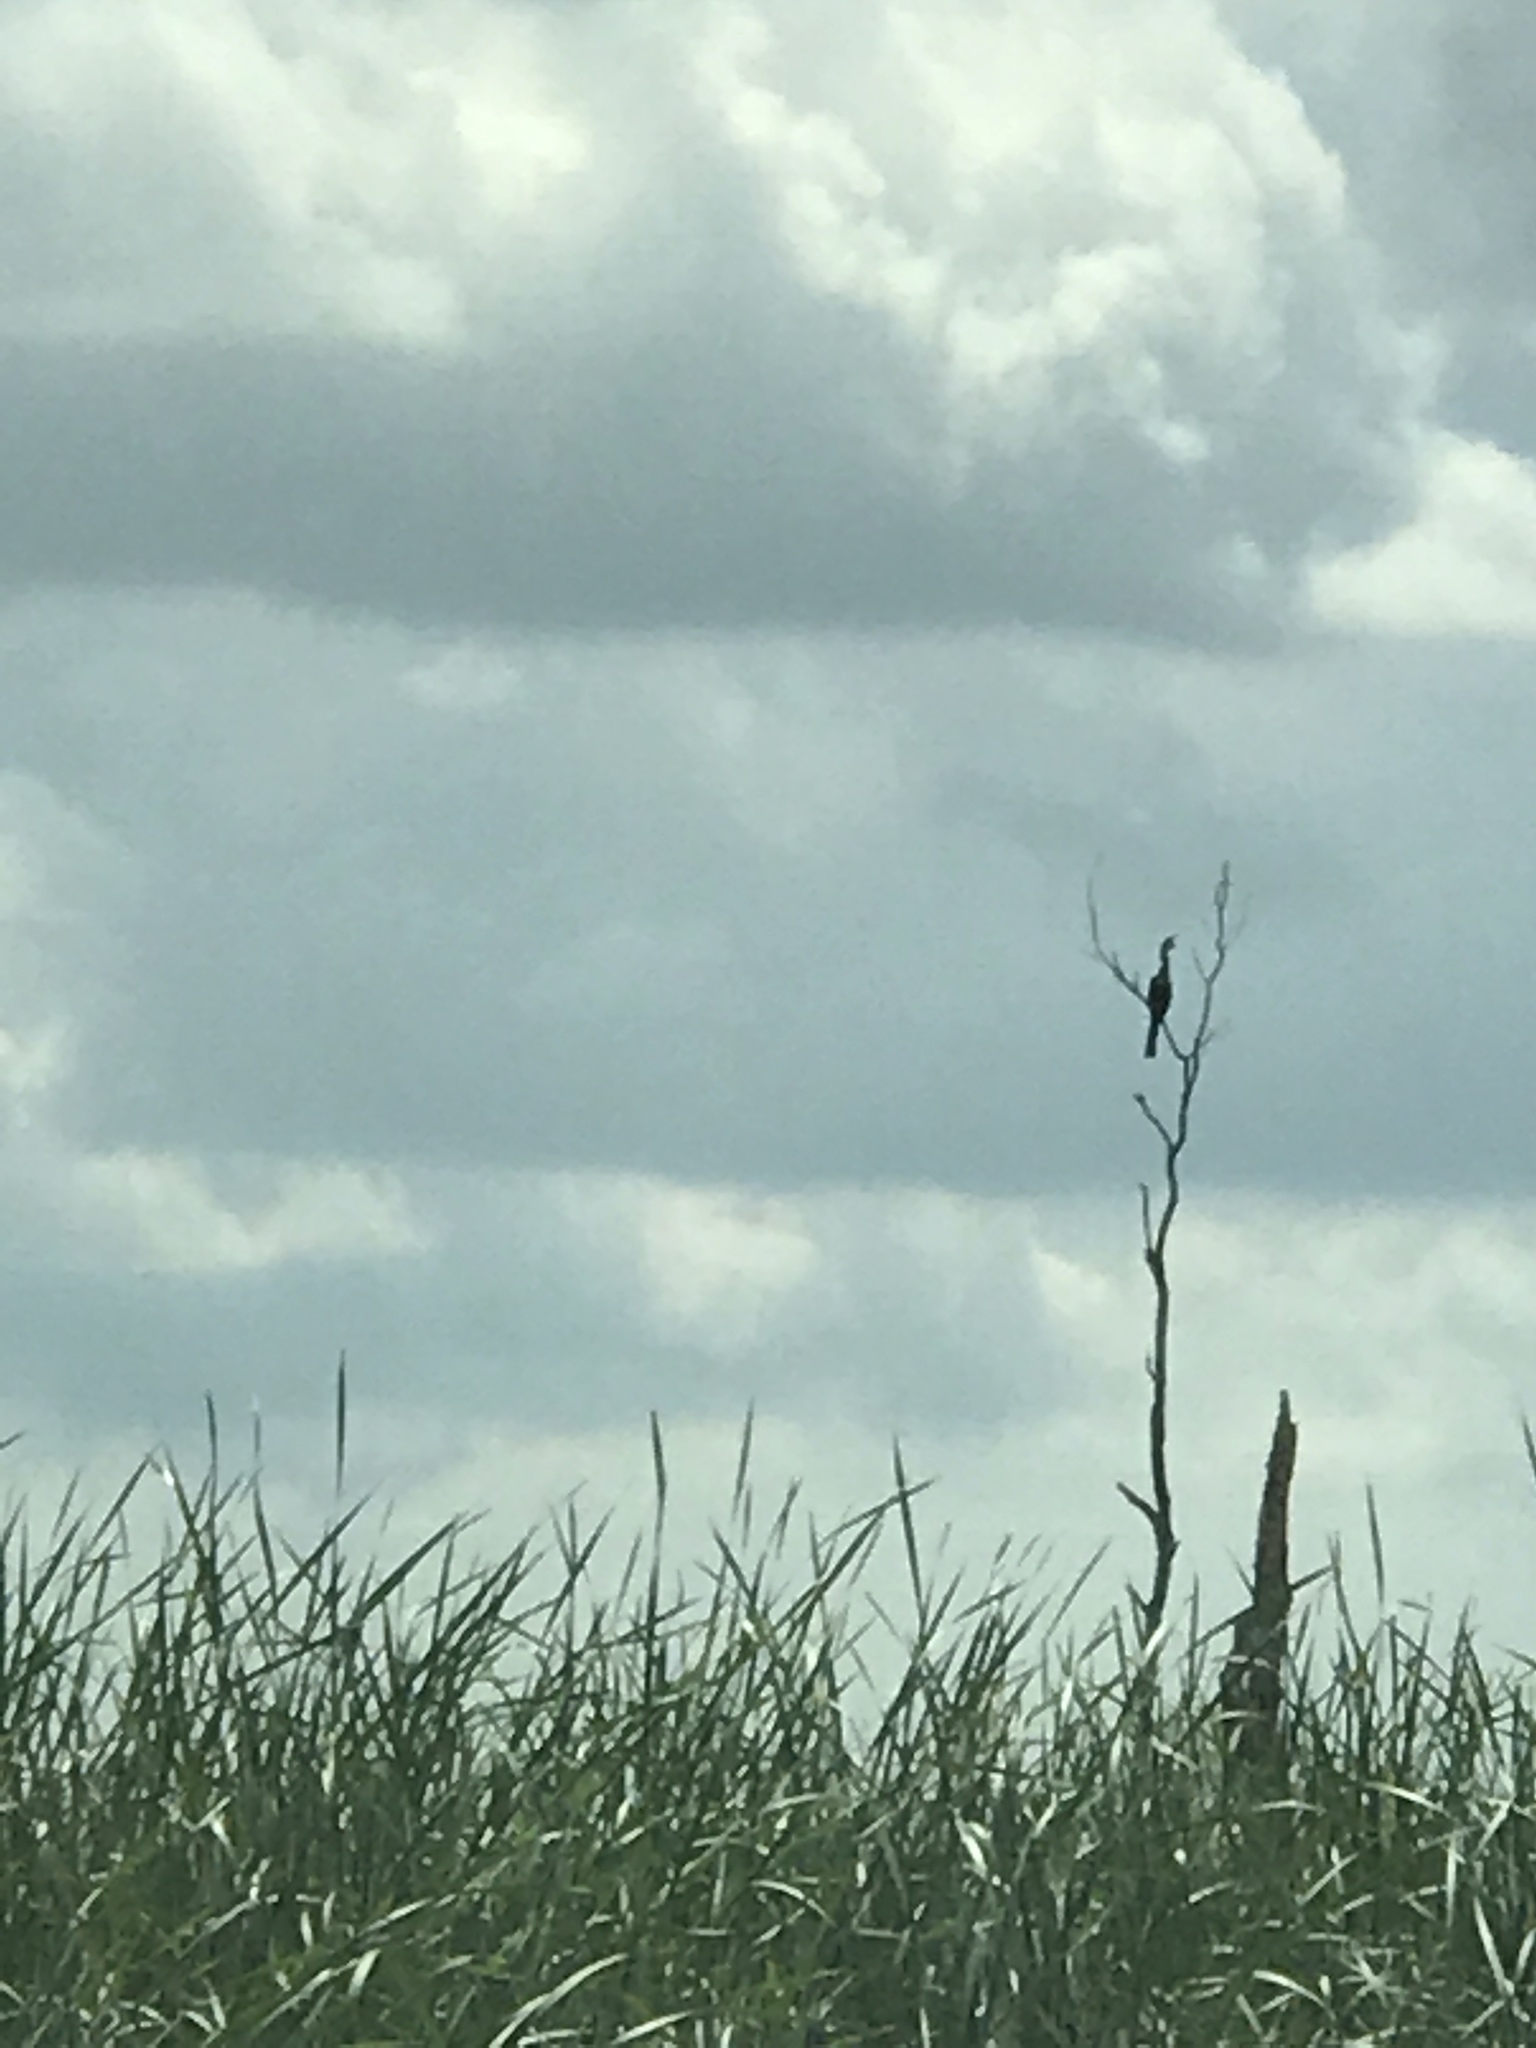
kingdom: Animalia
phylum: Chordata
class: Aves
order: Suliformes
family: Anhingidae
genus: Anhinga
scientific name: Anhinga anhinga
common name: Anhinga
